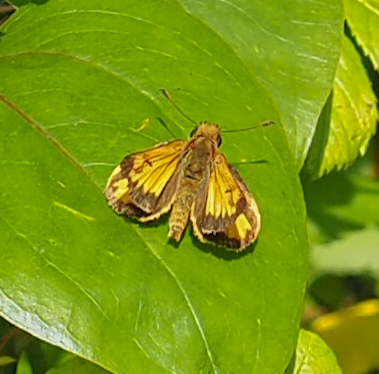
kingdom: Animalia
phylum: Arthropoda
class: Insecta
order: Lepidoptera
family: Hesperiidae
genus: Lon
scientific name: Lon zabulon
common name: Zabulon skipper
